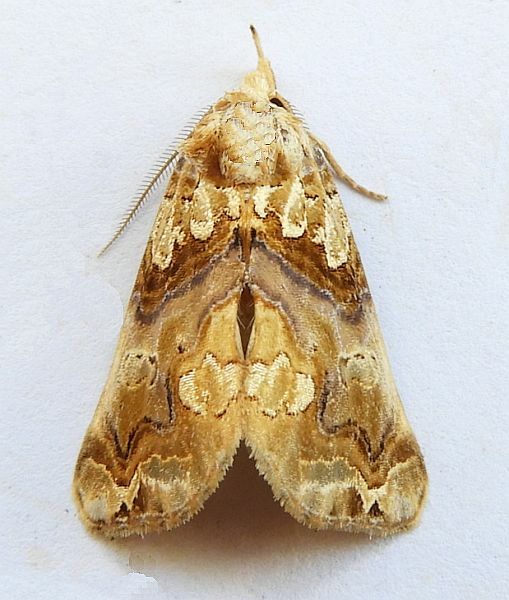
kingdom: Animalia
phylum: Arthropoda
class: Insecta
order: Lepidoptera
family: Erebidae
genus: Plusiodonta
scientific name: Plusiodonta compressipalpis
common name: Moonseed moth
